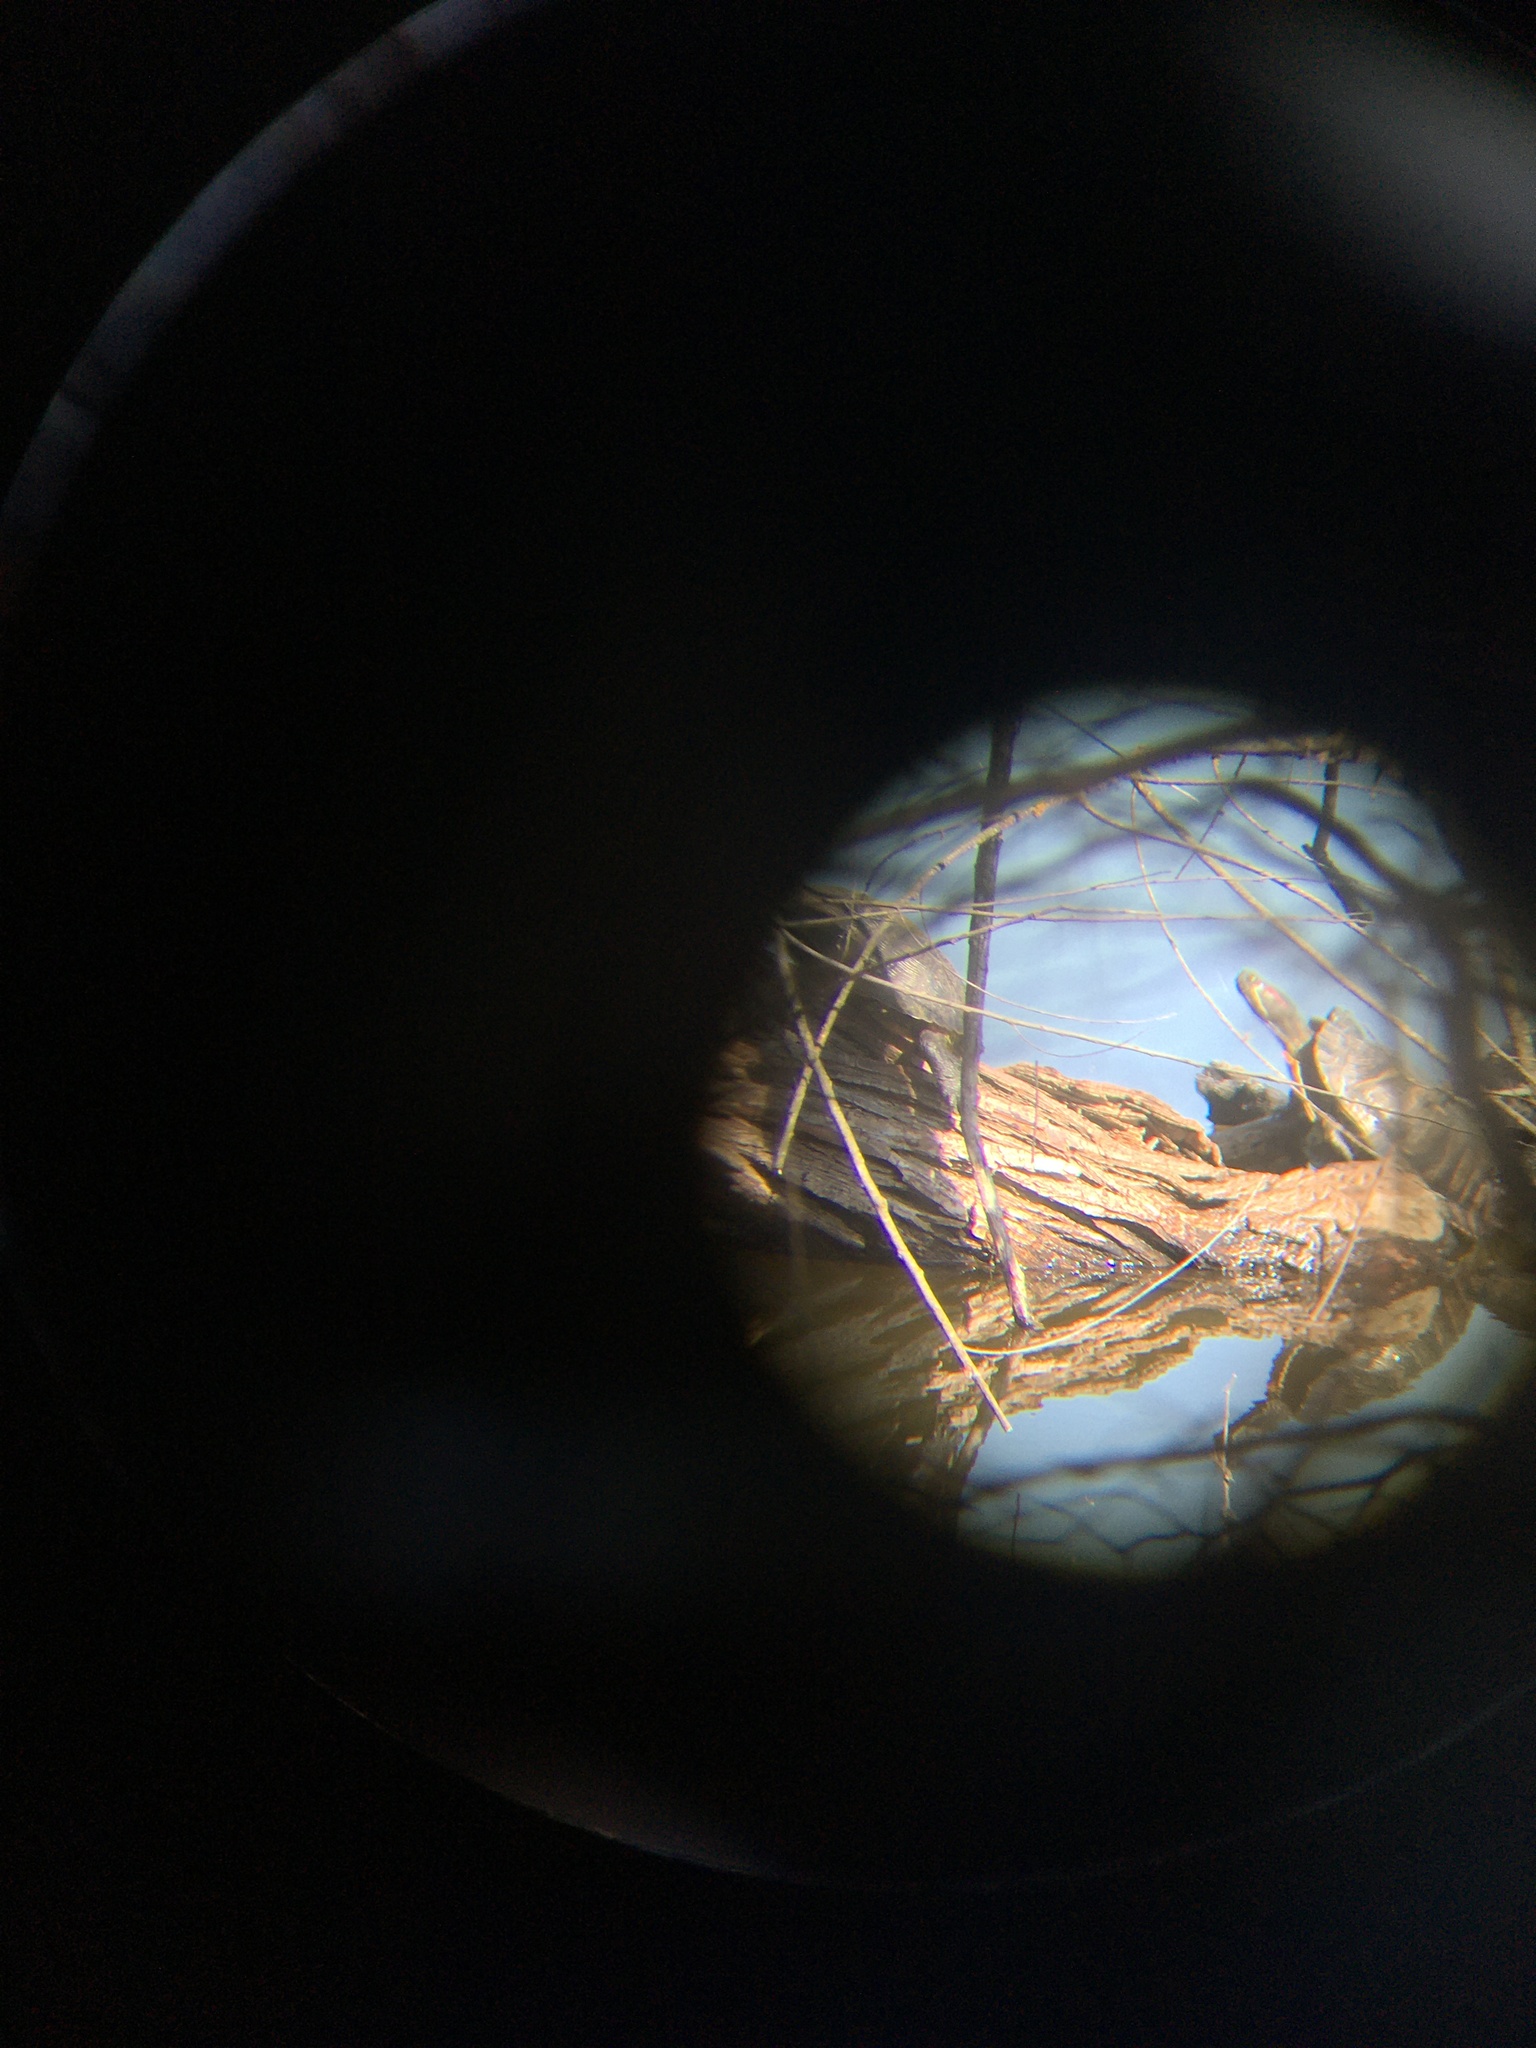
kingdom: Animalia
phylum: Chordata
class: Testudines
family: Emydidae
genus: Trachemys
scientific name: Trachemys scripta
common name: Slider
